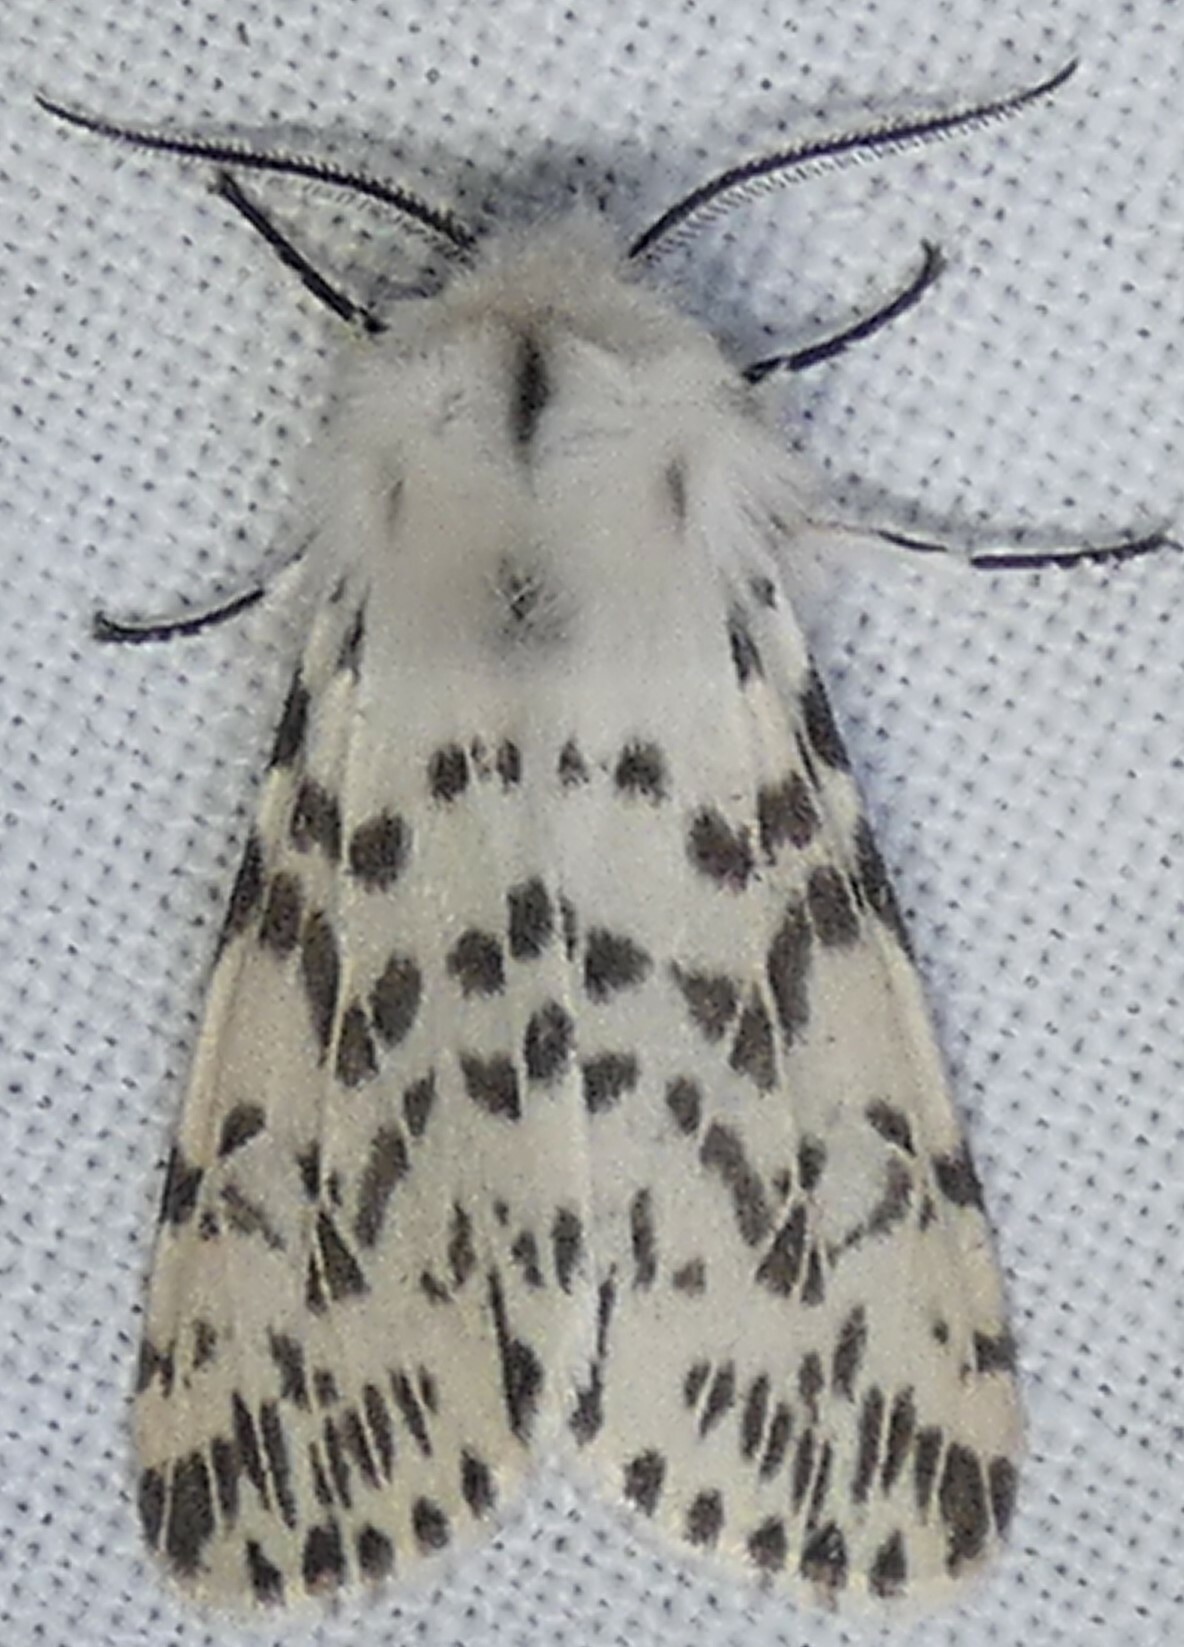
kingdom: Animalia
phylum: Arthropoda
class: Insecta
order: Lepidoptera
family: Erebidae
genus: Hyphantria
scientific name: Hyphantria cunea
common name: American white moth
